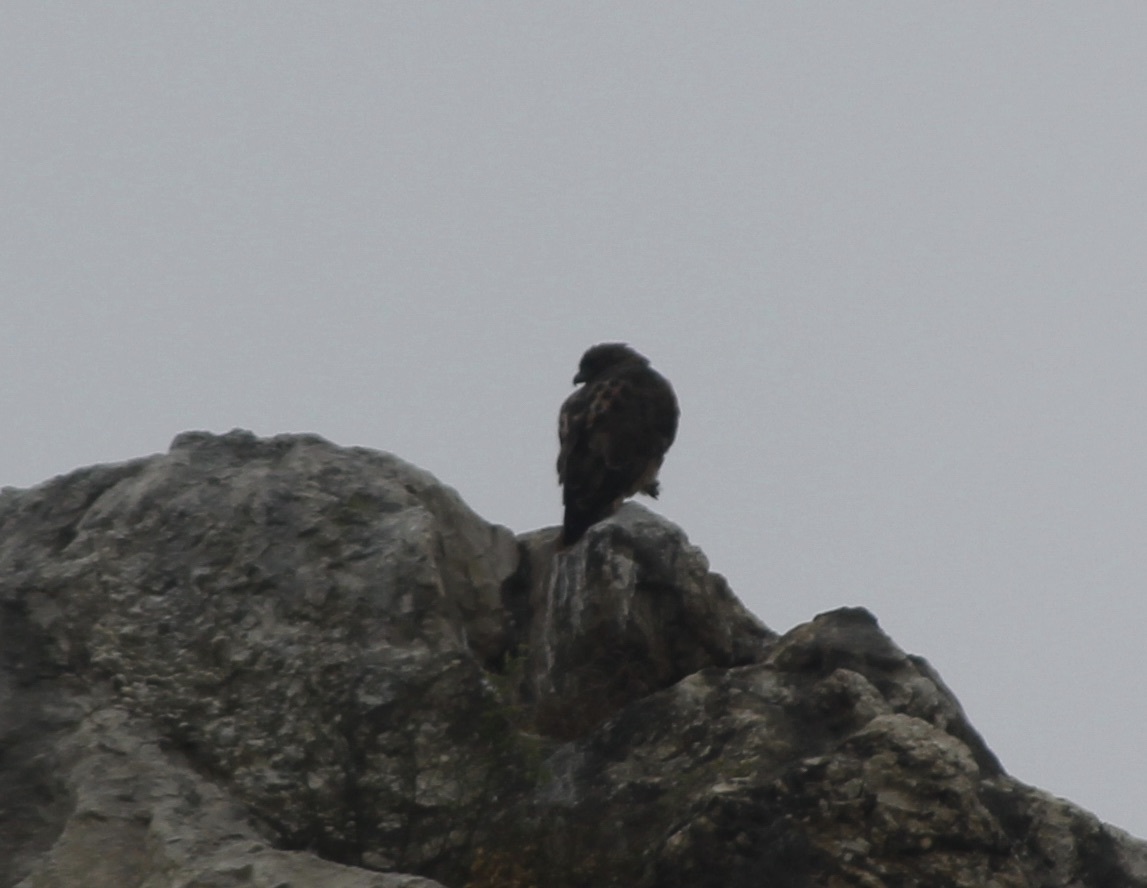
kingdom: Animalia
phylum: Chordata
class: Aves
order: Falconiformes
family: Falconidae
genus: Falco
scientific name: Falco peregrinus
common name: Peregrine falcon
